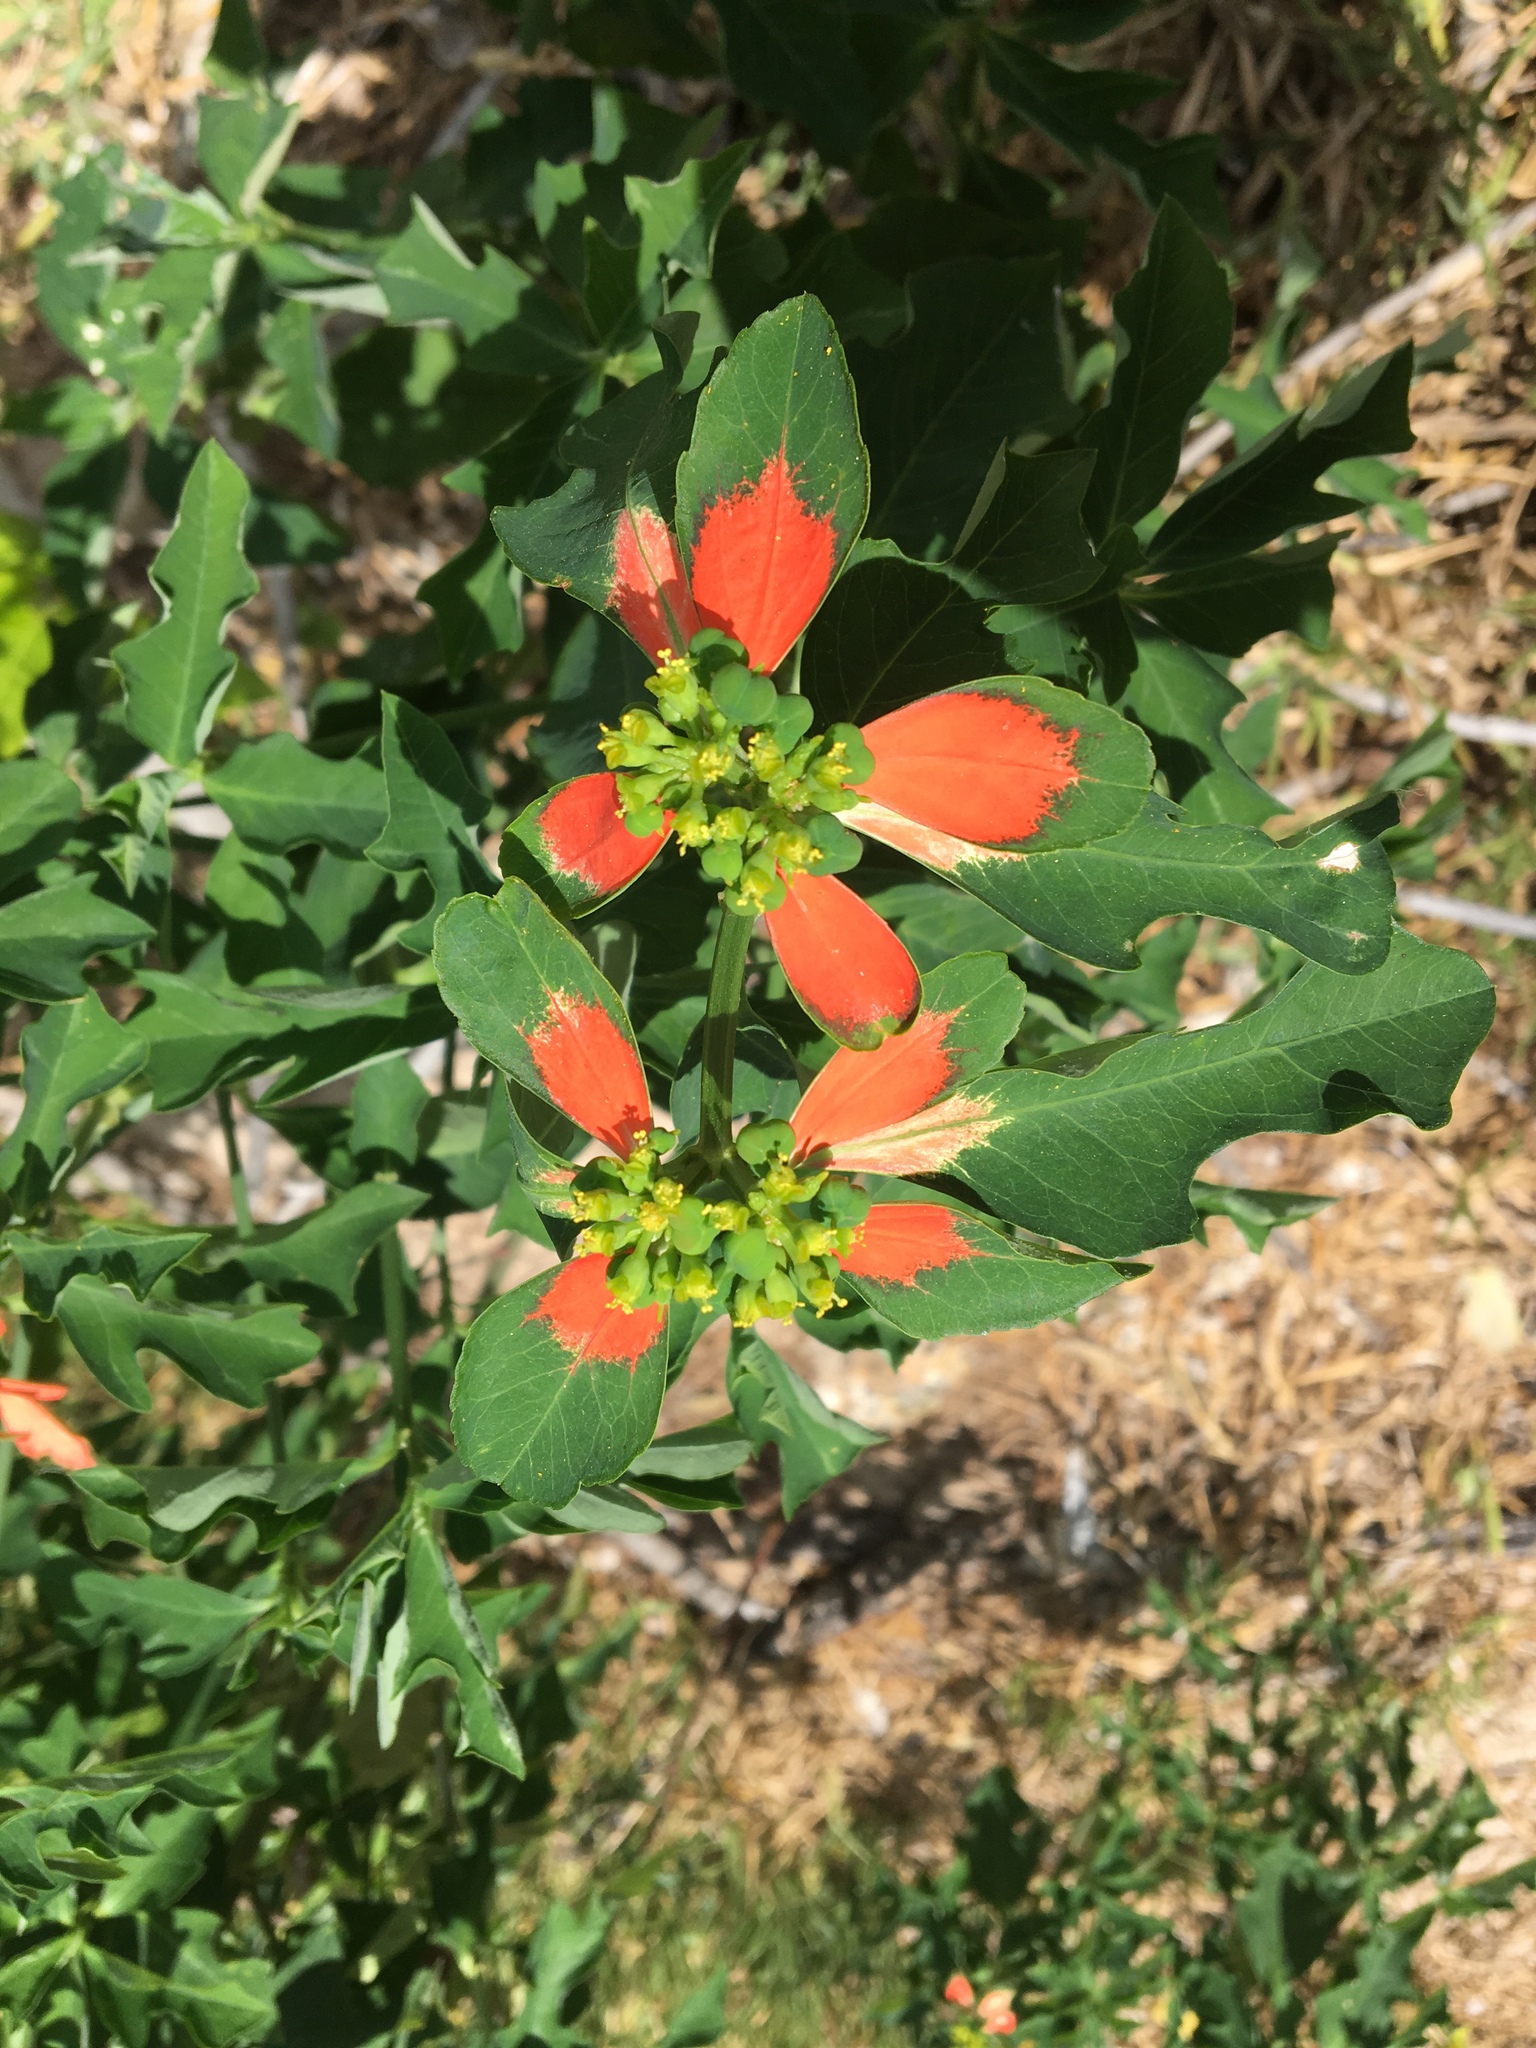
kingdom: Plantae
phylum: Tracheophyta
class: Magnoliopsida
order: Malpighiales
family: Euphorbiaceae
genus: Euphorbia
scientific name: Euphorbia heterophylla
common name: Mexican fireplant
